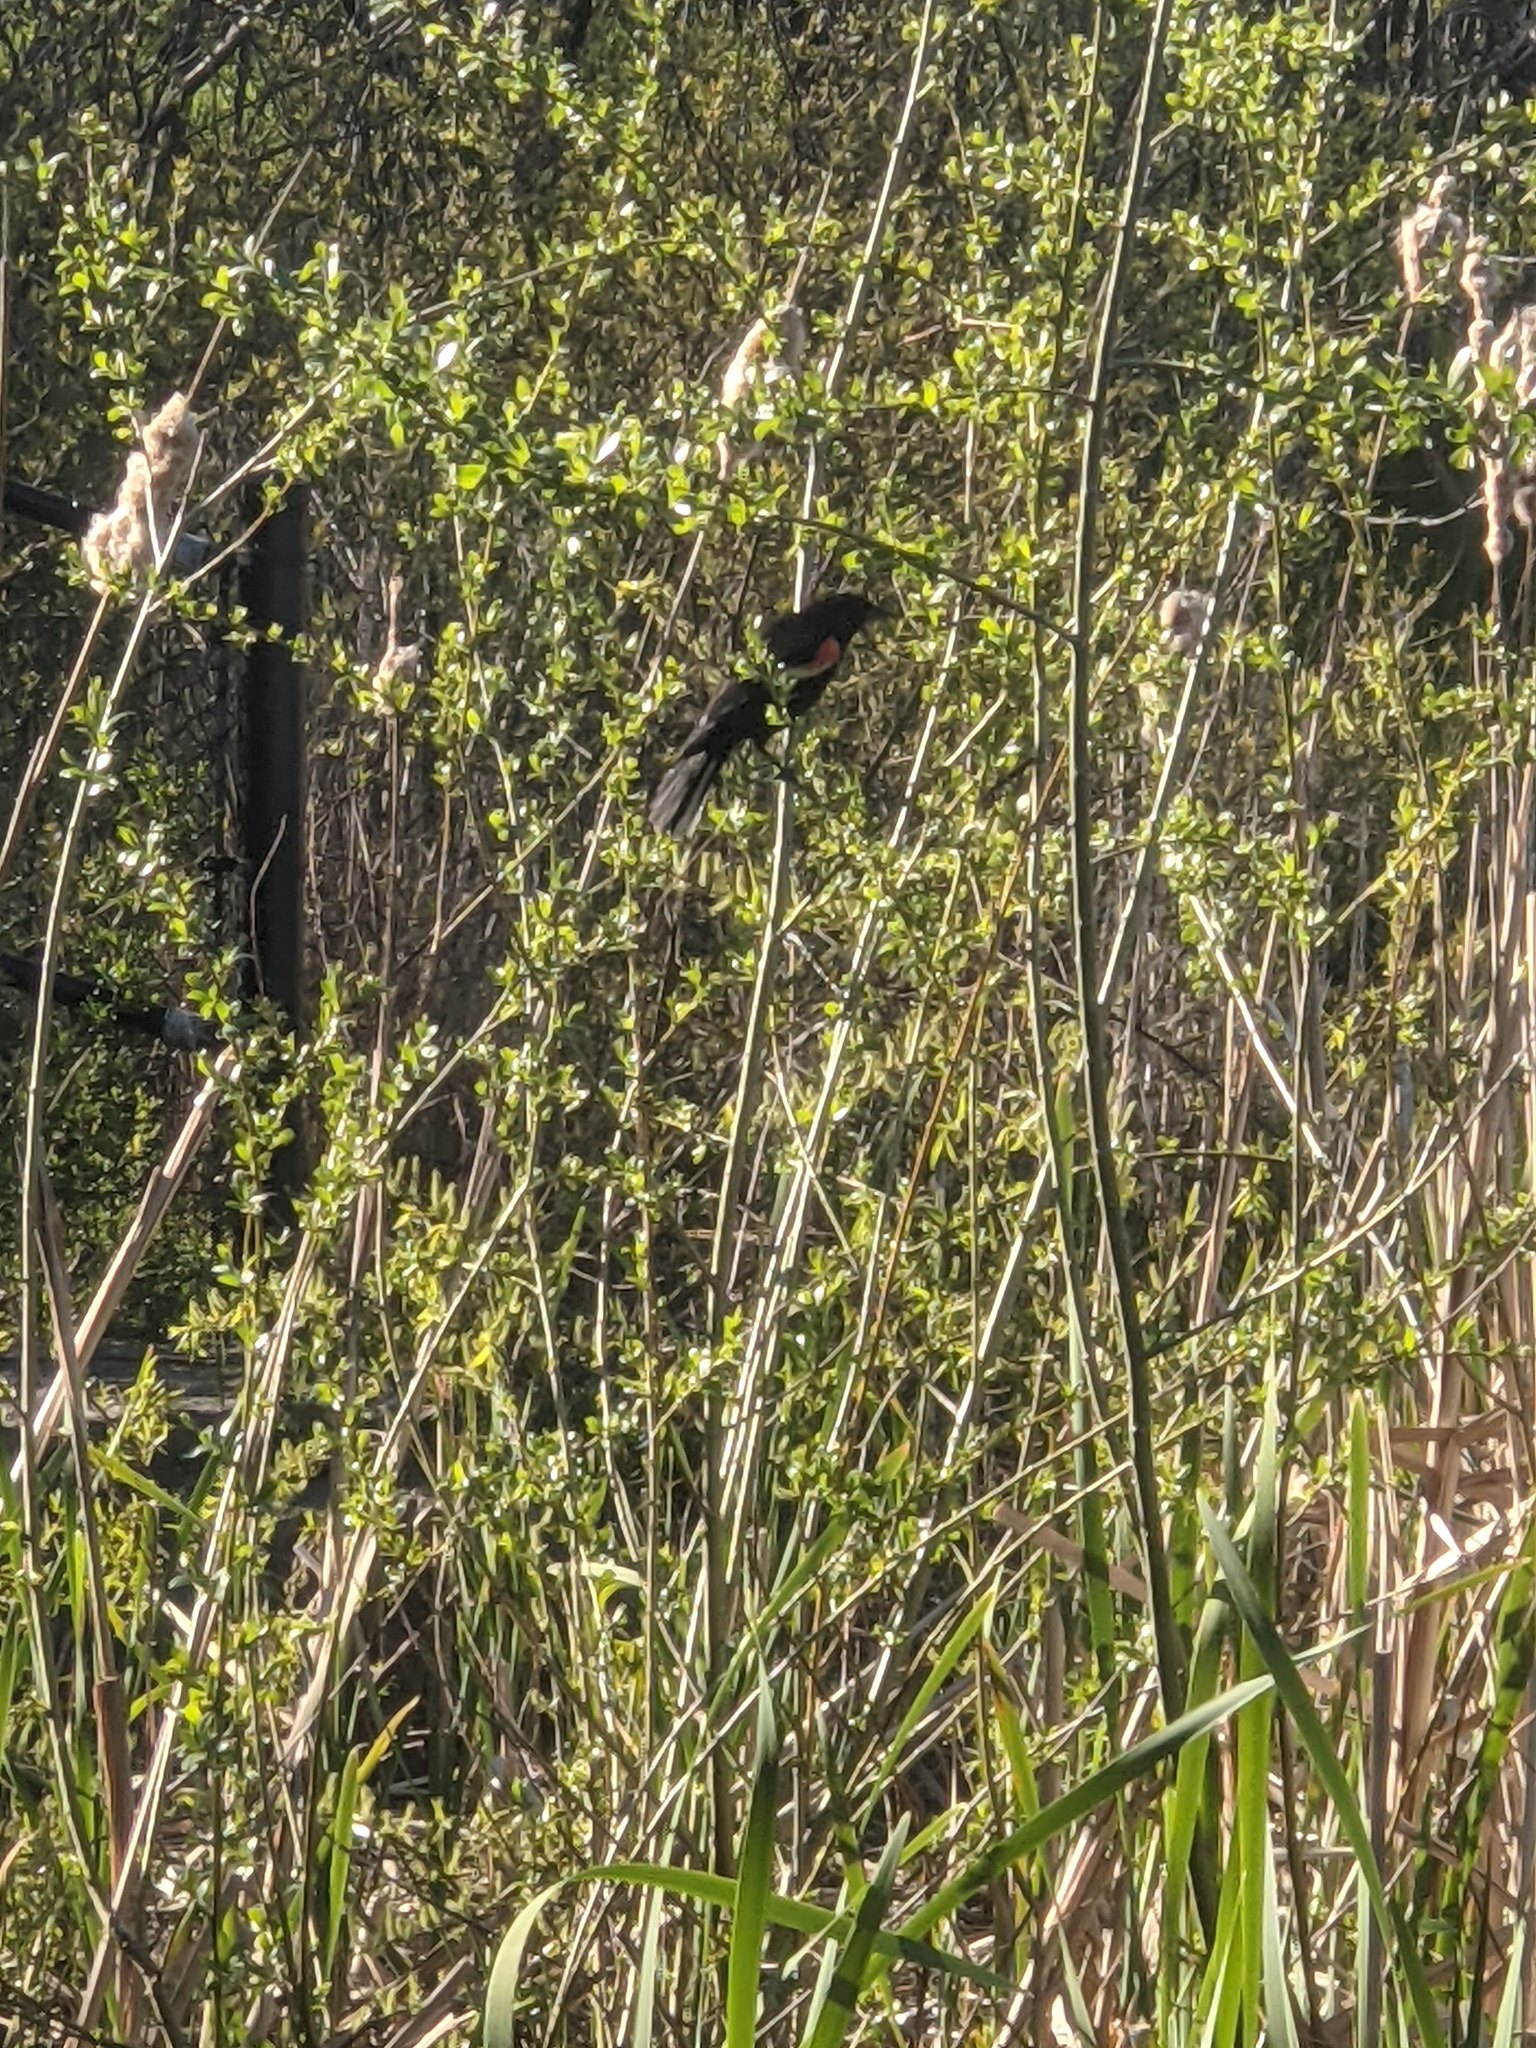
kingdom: Animalia
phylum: Chordata
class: Aves
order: Passeriformes
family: Icteridae
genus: Agelaius
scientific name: Agelaius phoeniceus
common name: Red-winged blackbird
